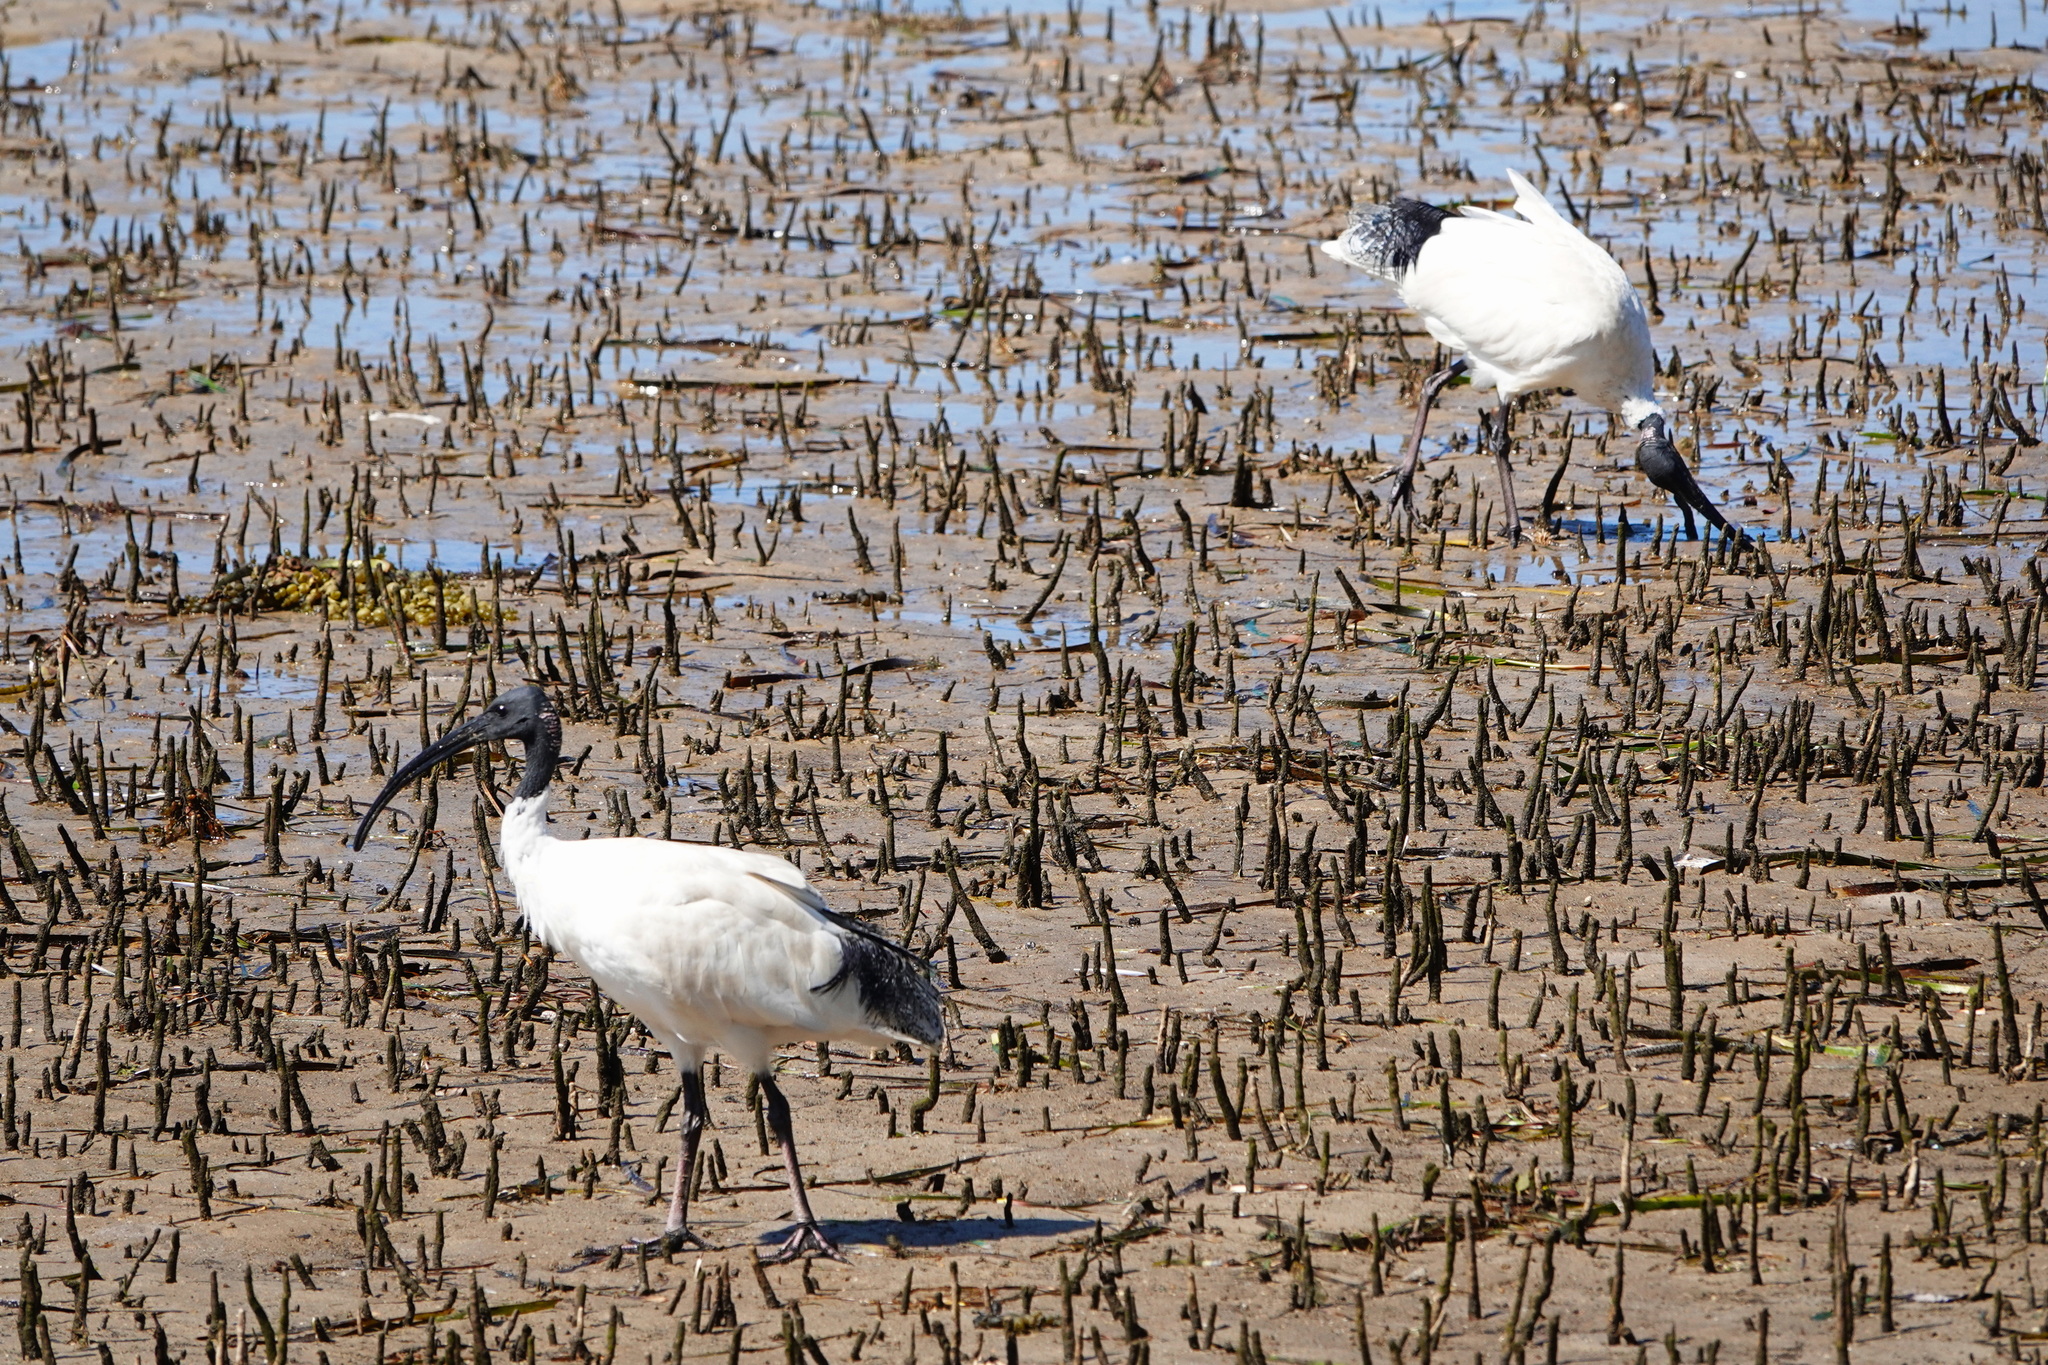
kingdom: Animalia
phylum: Chordata
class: Aves
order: Pelecaniformes
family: Threskiornithidae
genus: Threskiornis
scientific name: Threskiornis molucca
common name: Australian white ibis
